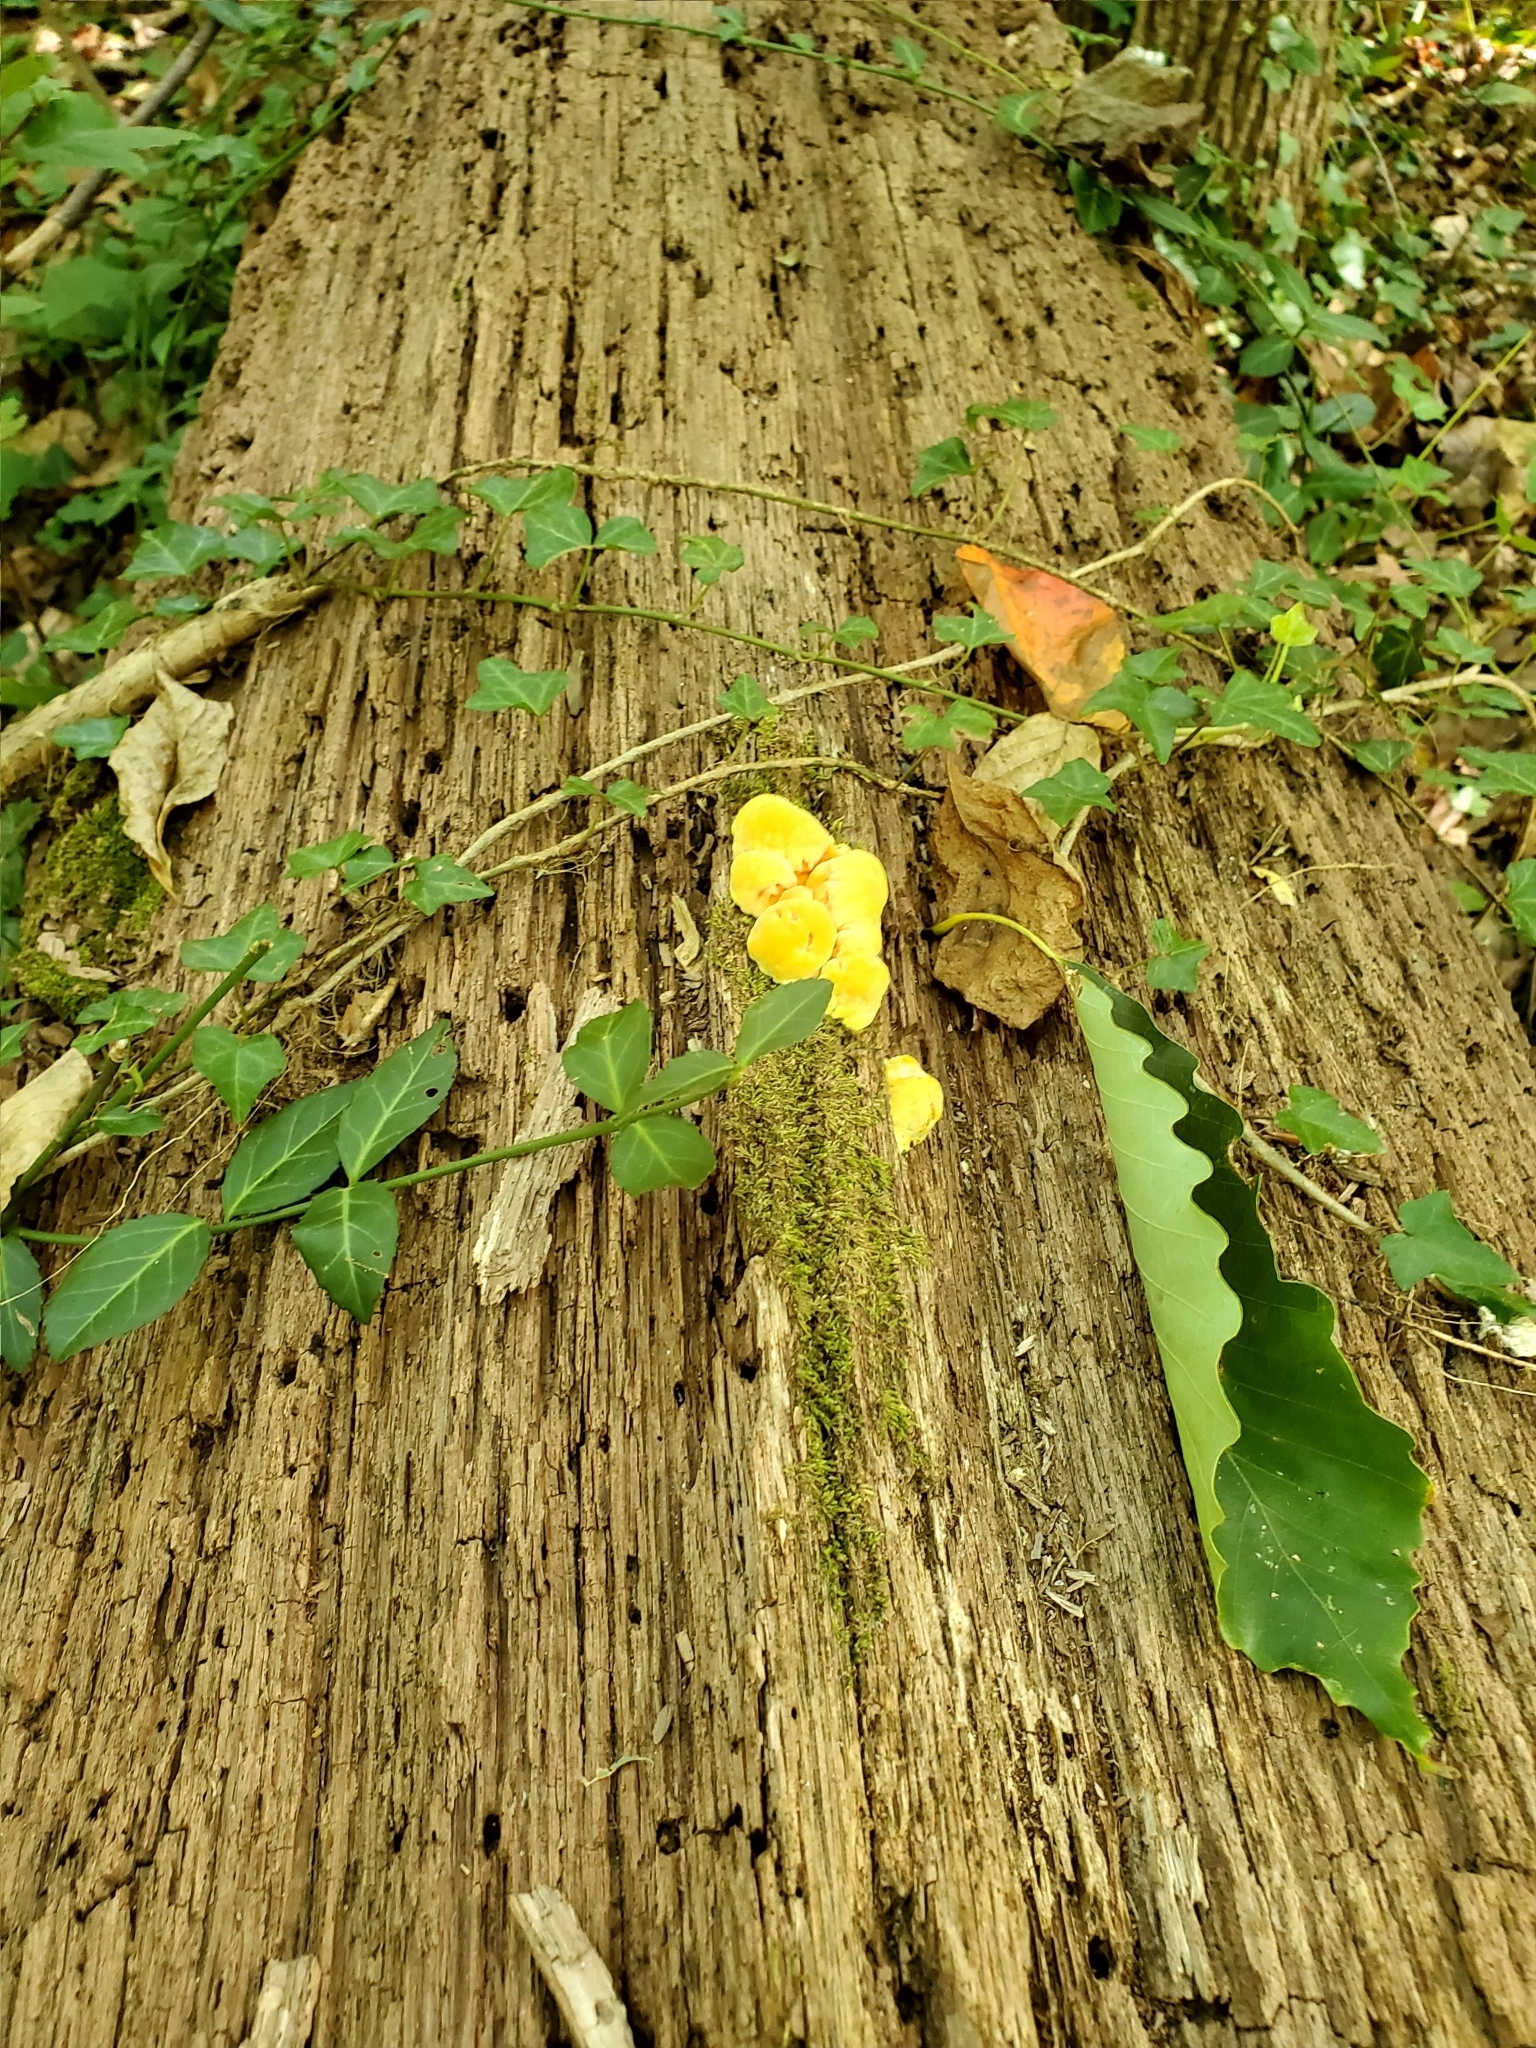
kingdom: Fungi
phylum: Basidiomycota
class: Agaricomycetes
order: Polyporales
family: Laetiporaceae
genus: Laetiporus
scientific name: Laetiporus sulphureus
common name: Chicken of the woods
